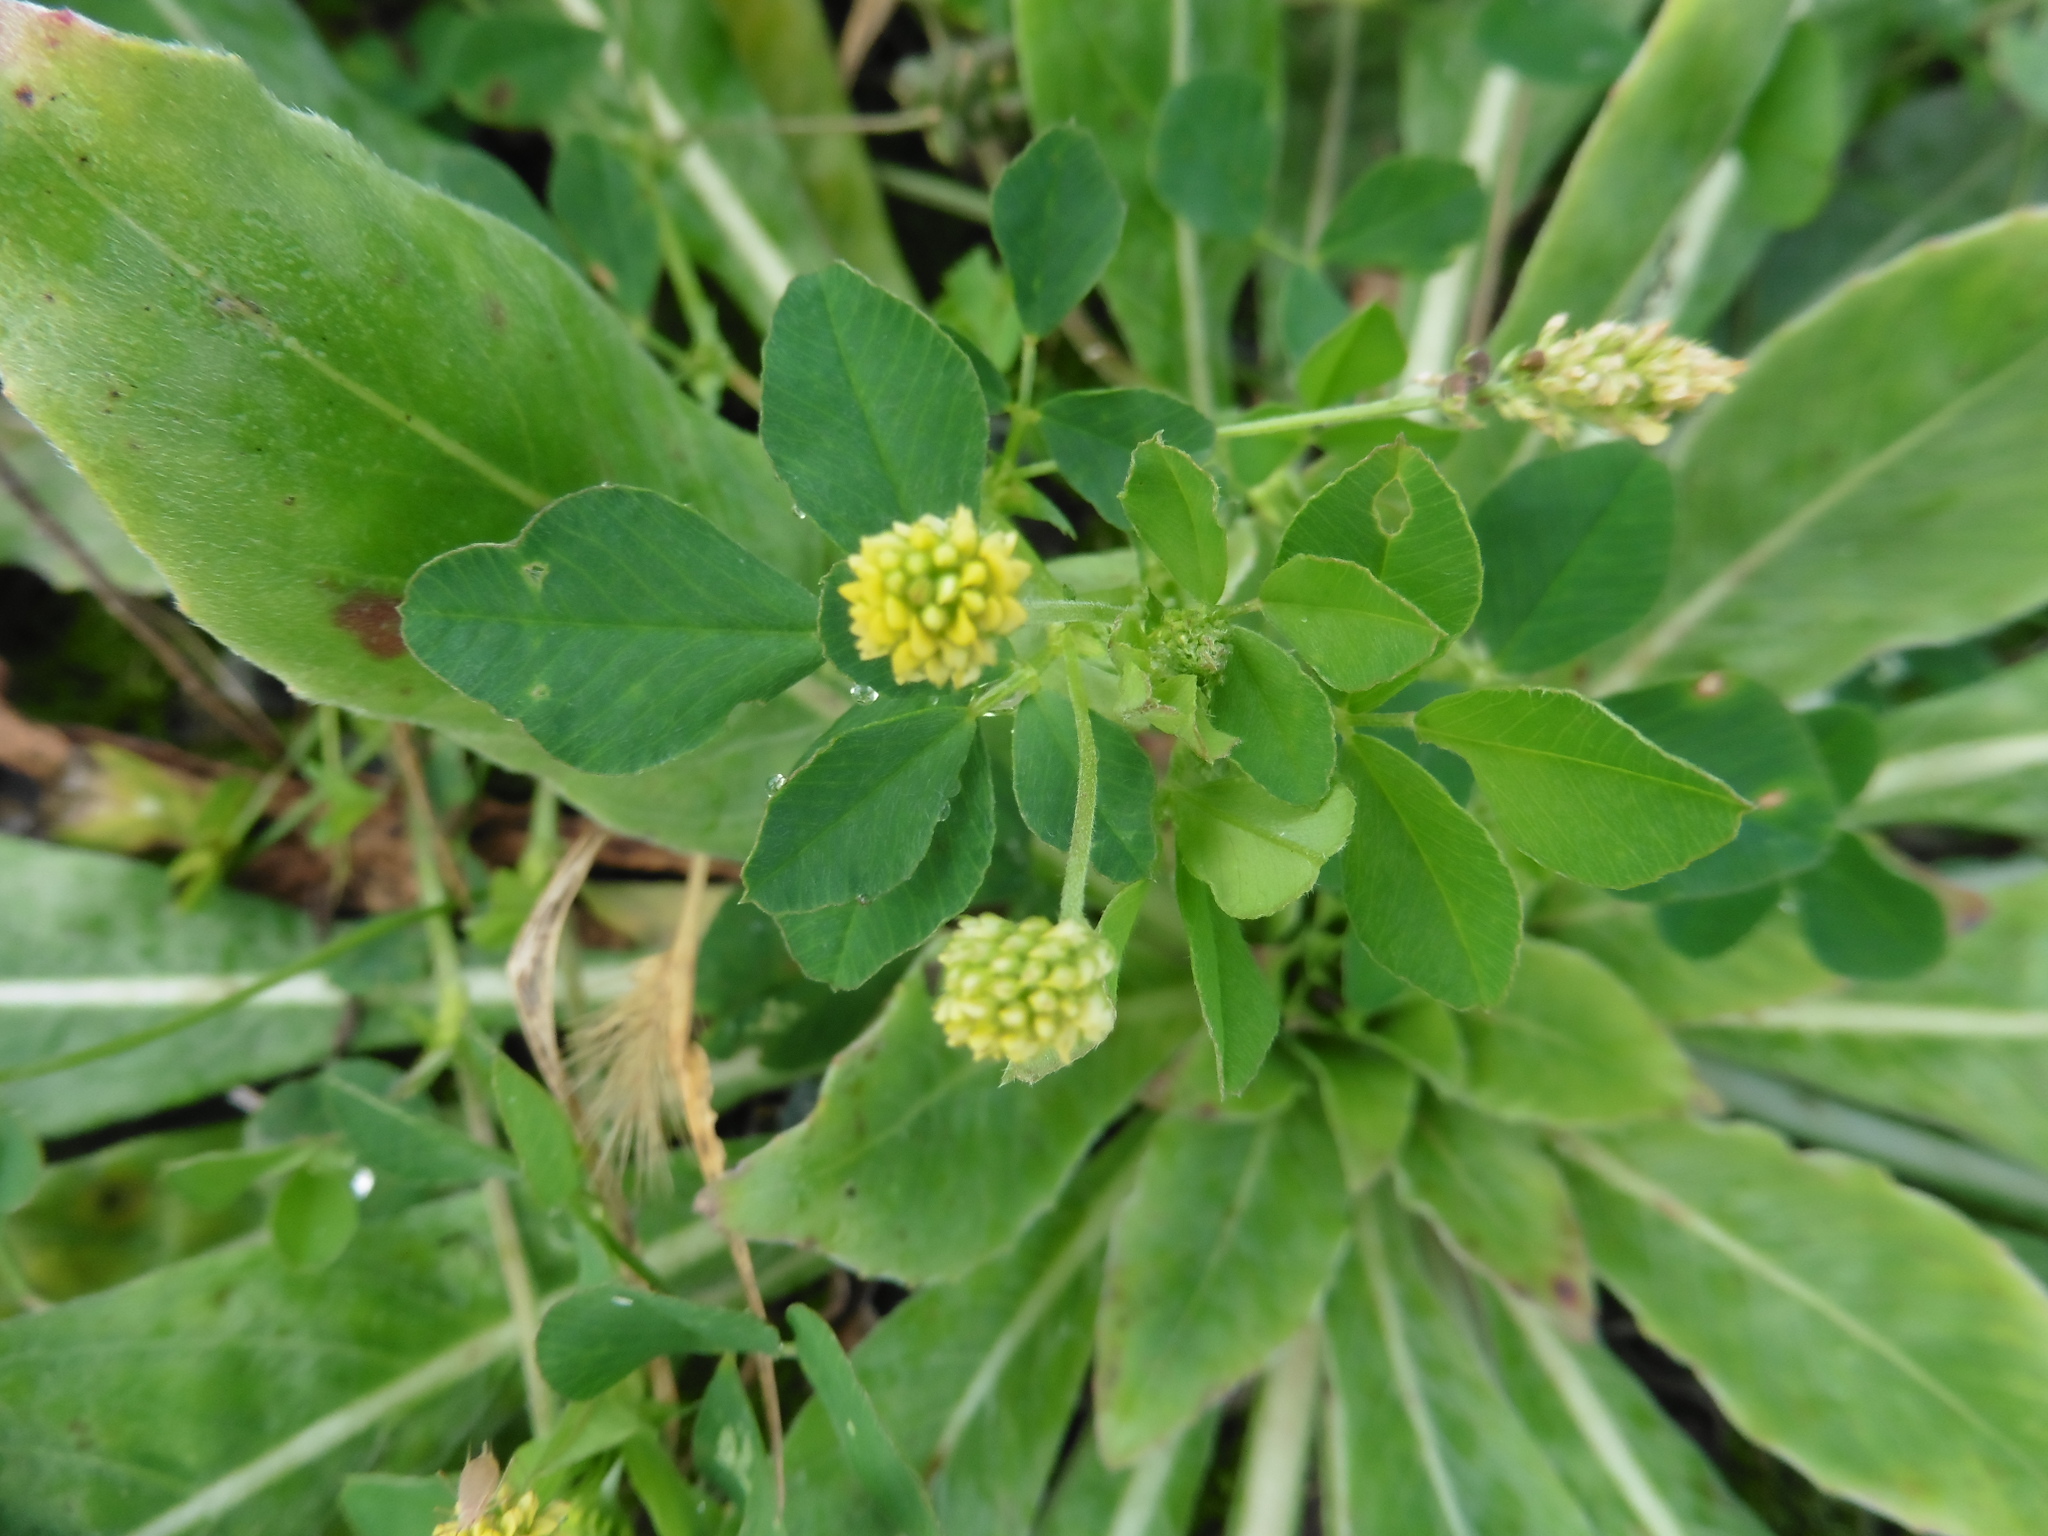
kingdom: Plantae
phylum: Tracheophyta
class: Magnoliopsida
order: Fabales
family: Fabaceae
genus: Medicago
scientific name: Medicago lupulina
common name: Black medick
